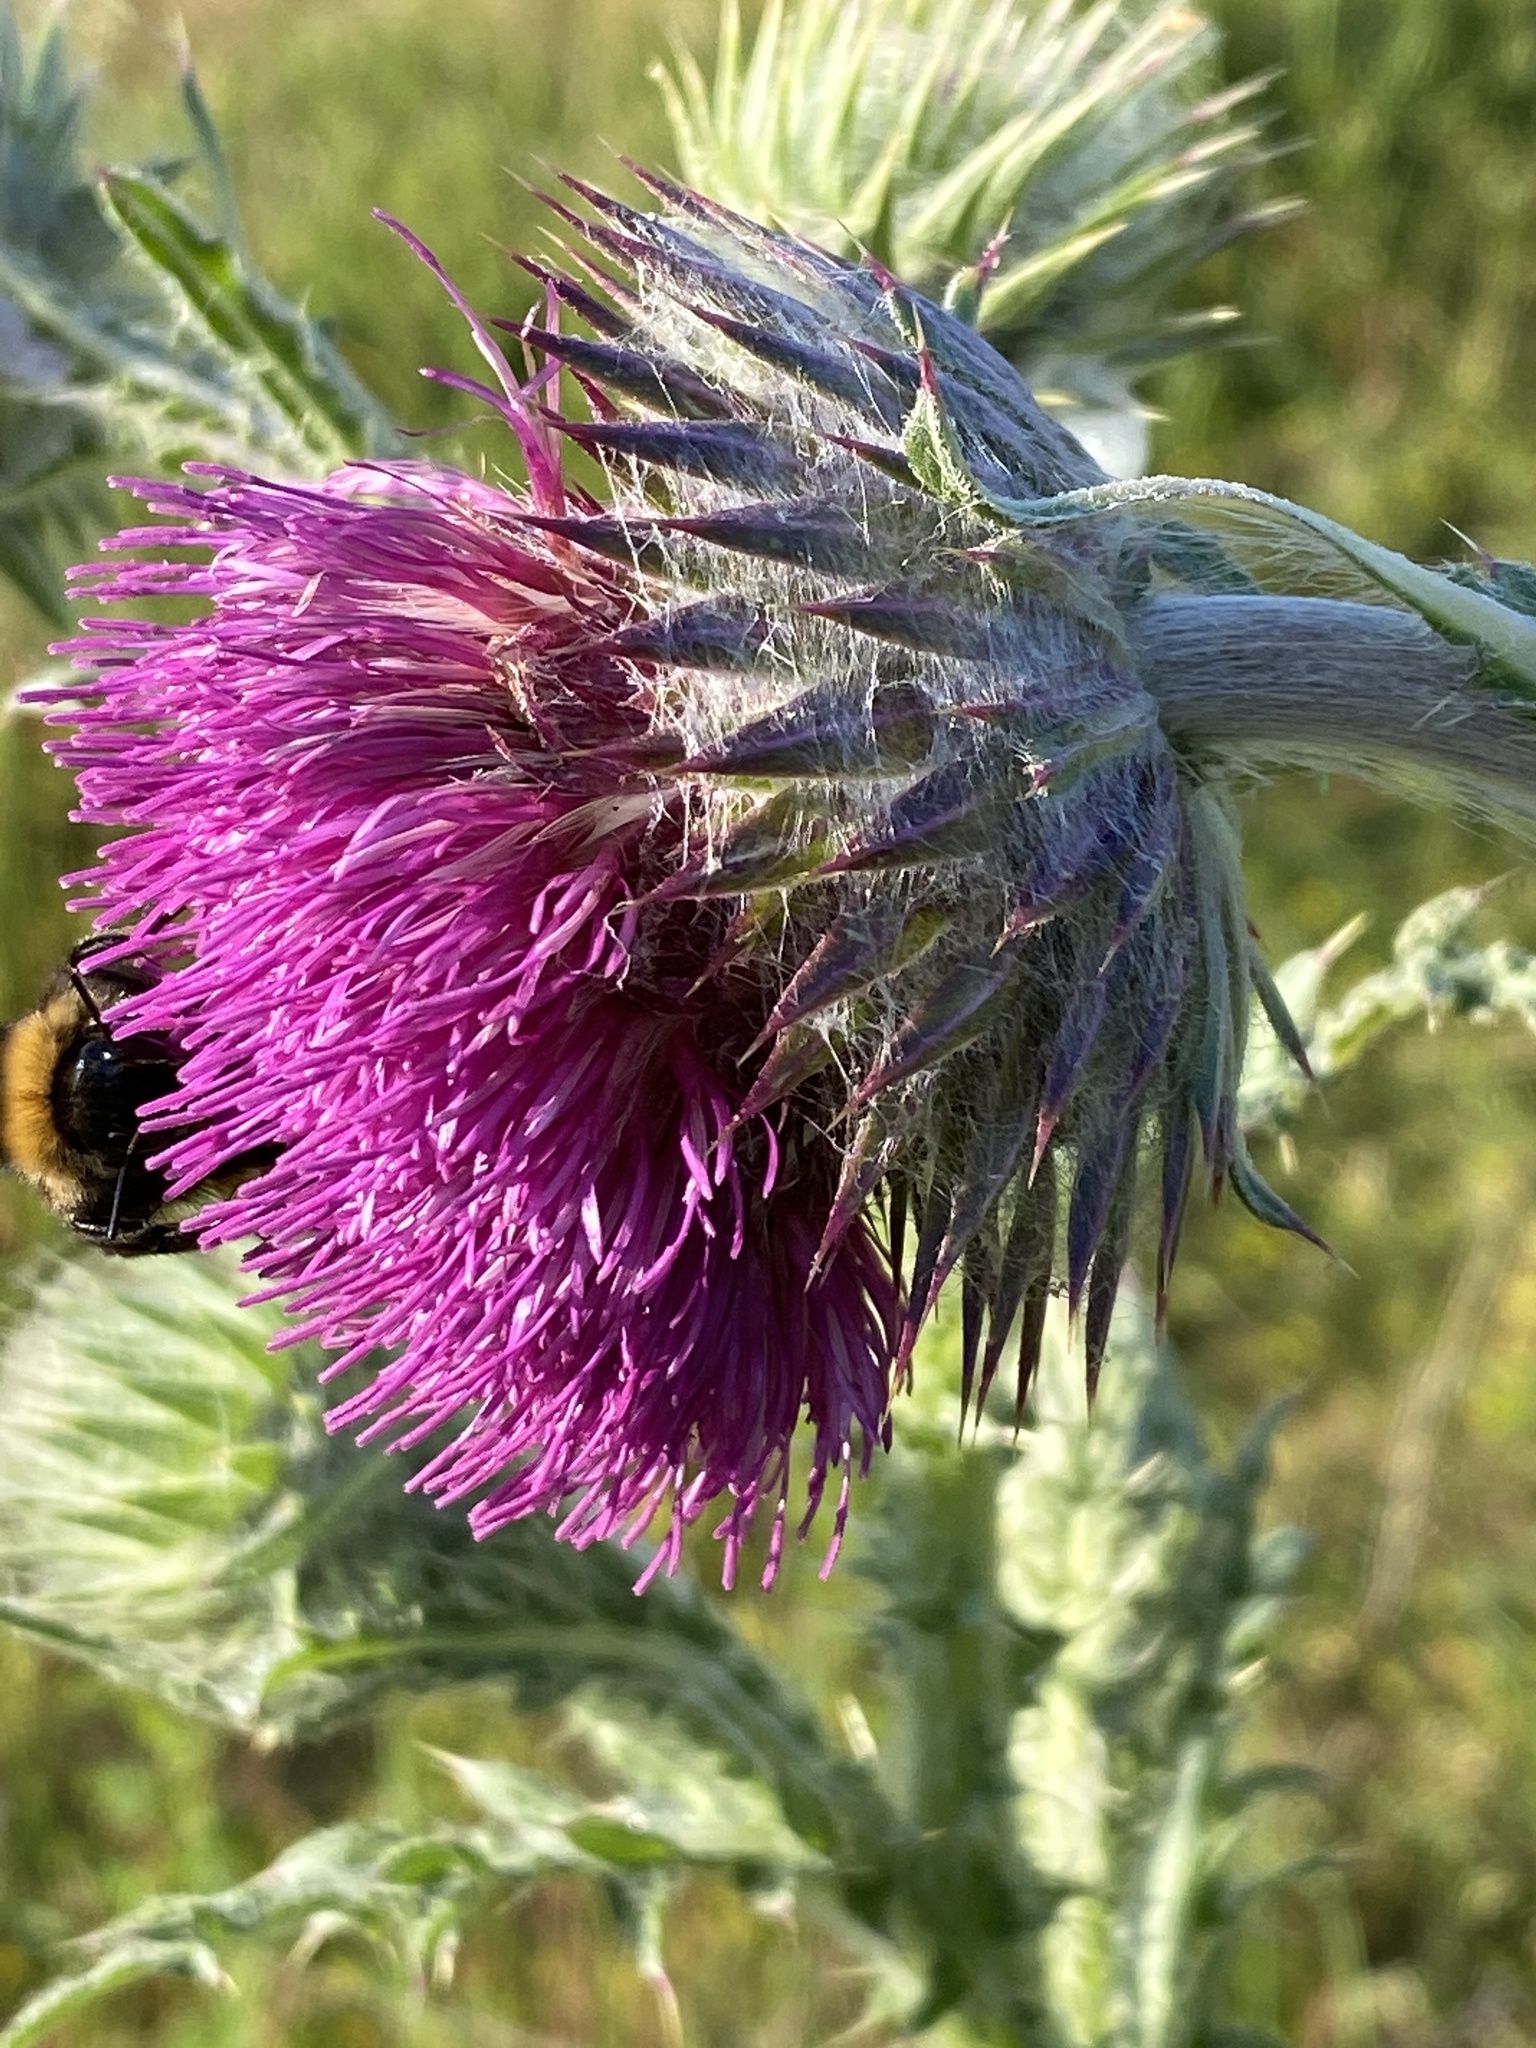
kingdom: Plantae
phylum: Tracheophyta
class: Magnoliopsida
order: Asterales
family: Asteraceae
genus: Carduus
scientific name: Carduus nutans
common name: Musk thistle
